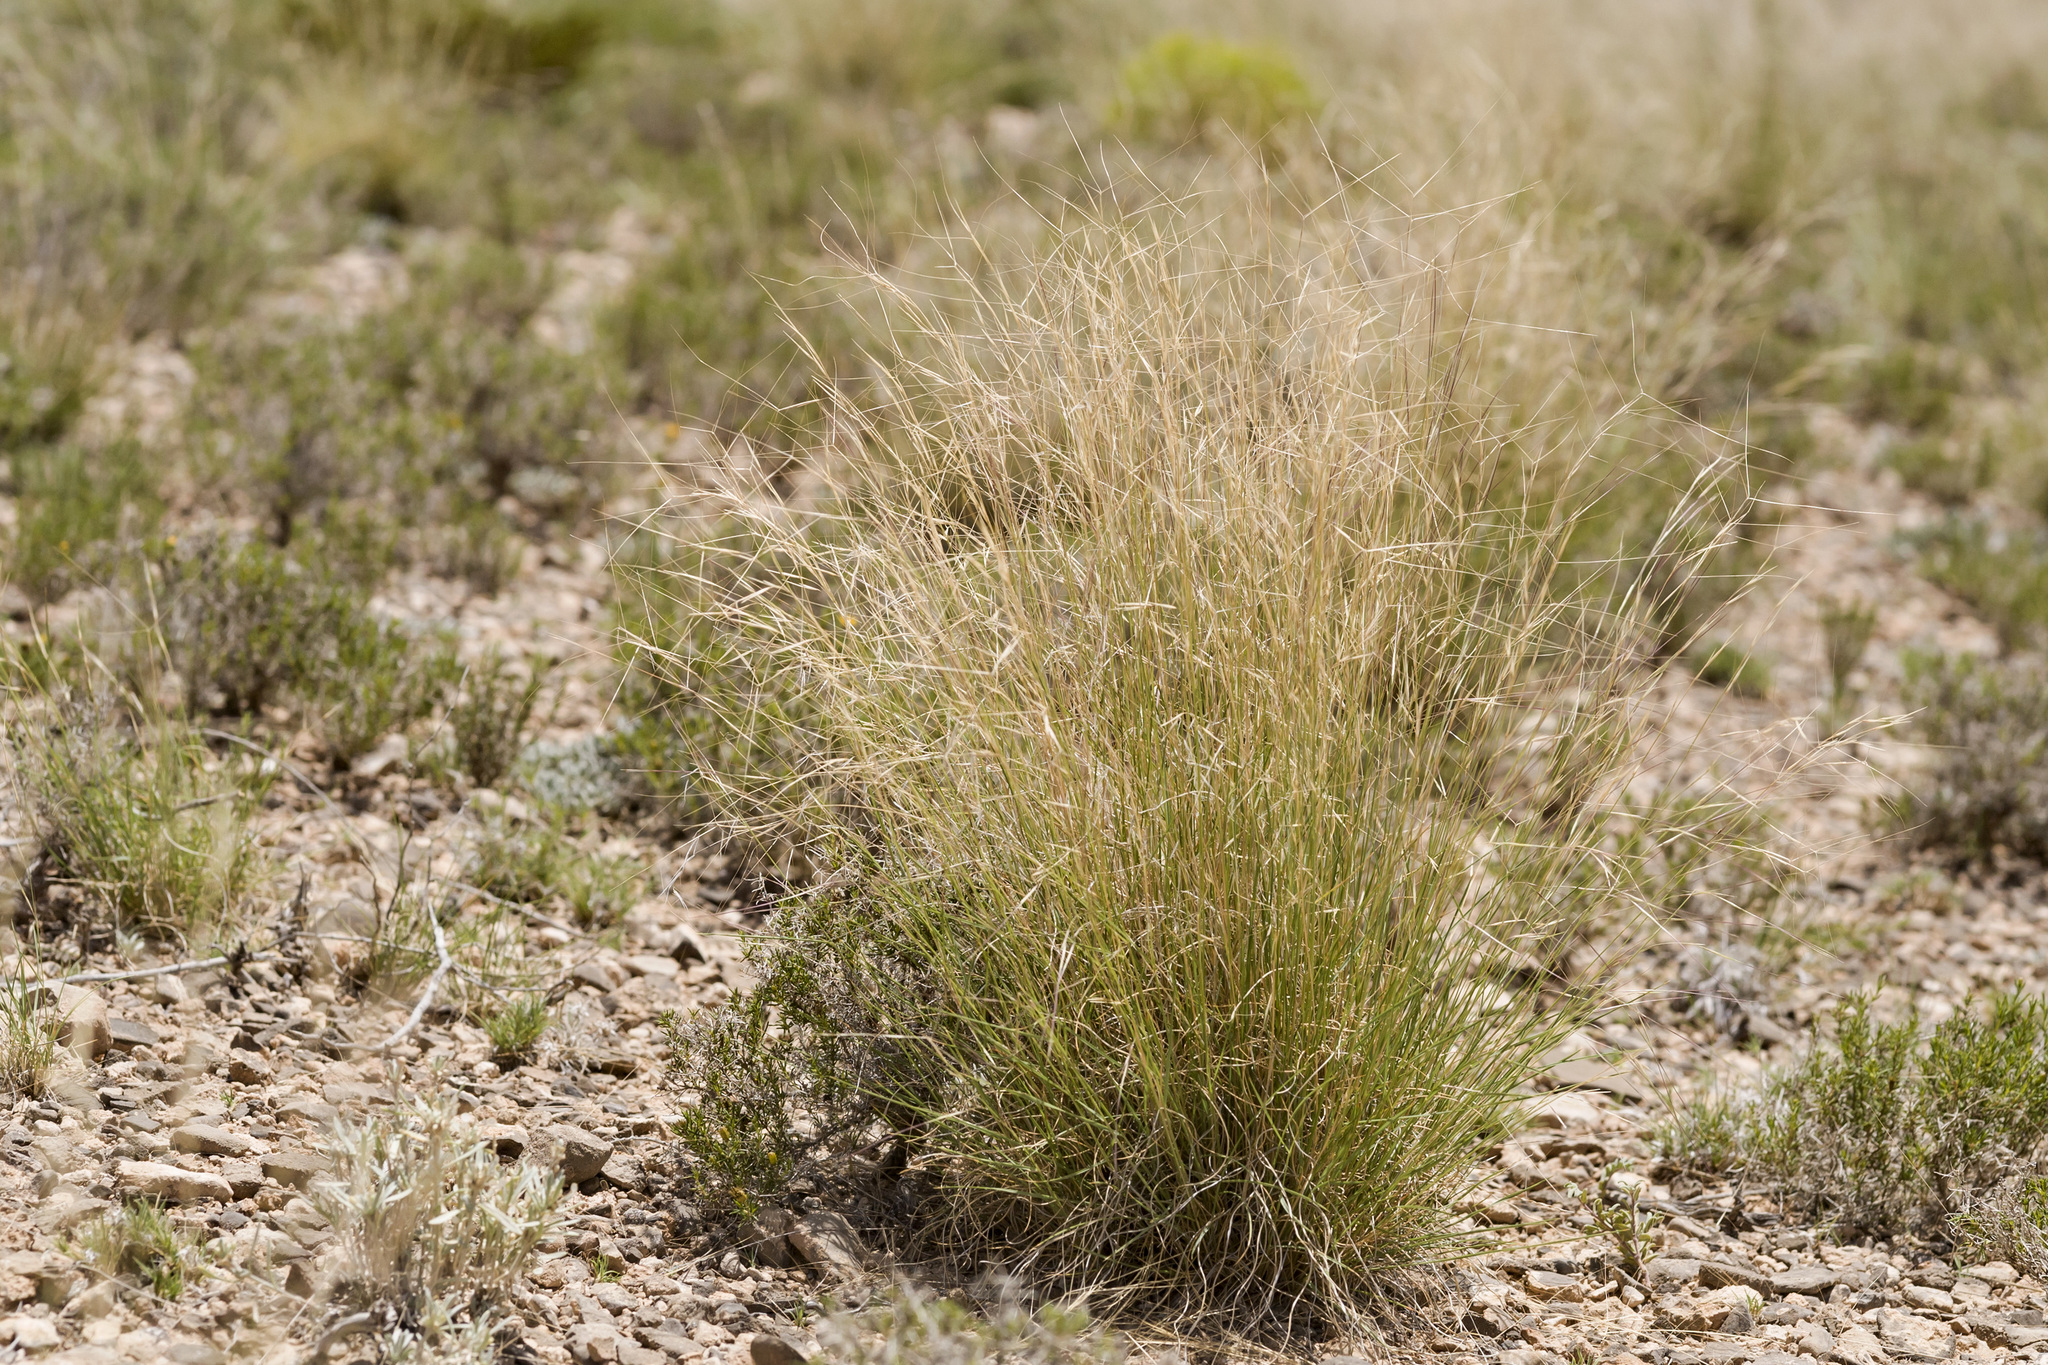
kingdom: Plantae
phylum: Tracheophyta
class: Liliopsida
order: Poales
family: Poaceae
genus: Aristida
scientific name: Aristida longiseta
